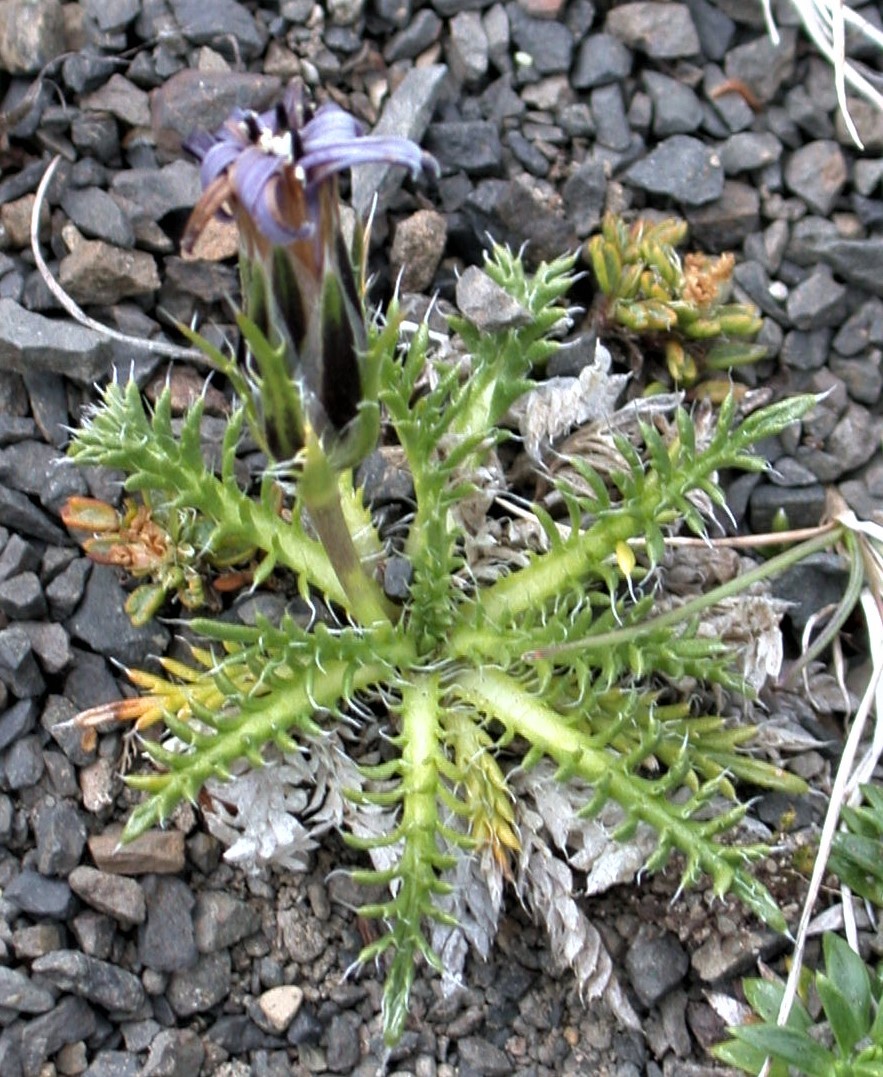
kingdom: Plantae
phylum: Tracheophyta
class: Magnoliopsida
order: Asterales
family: Asteraceae
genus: Perezia
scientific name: Perezia pilifera
